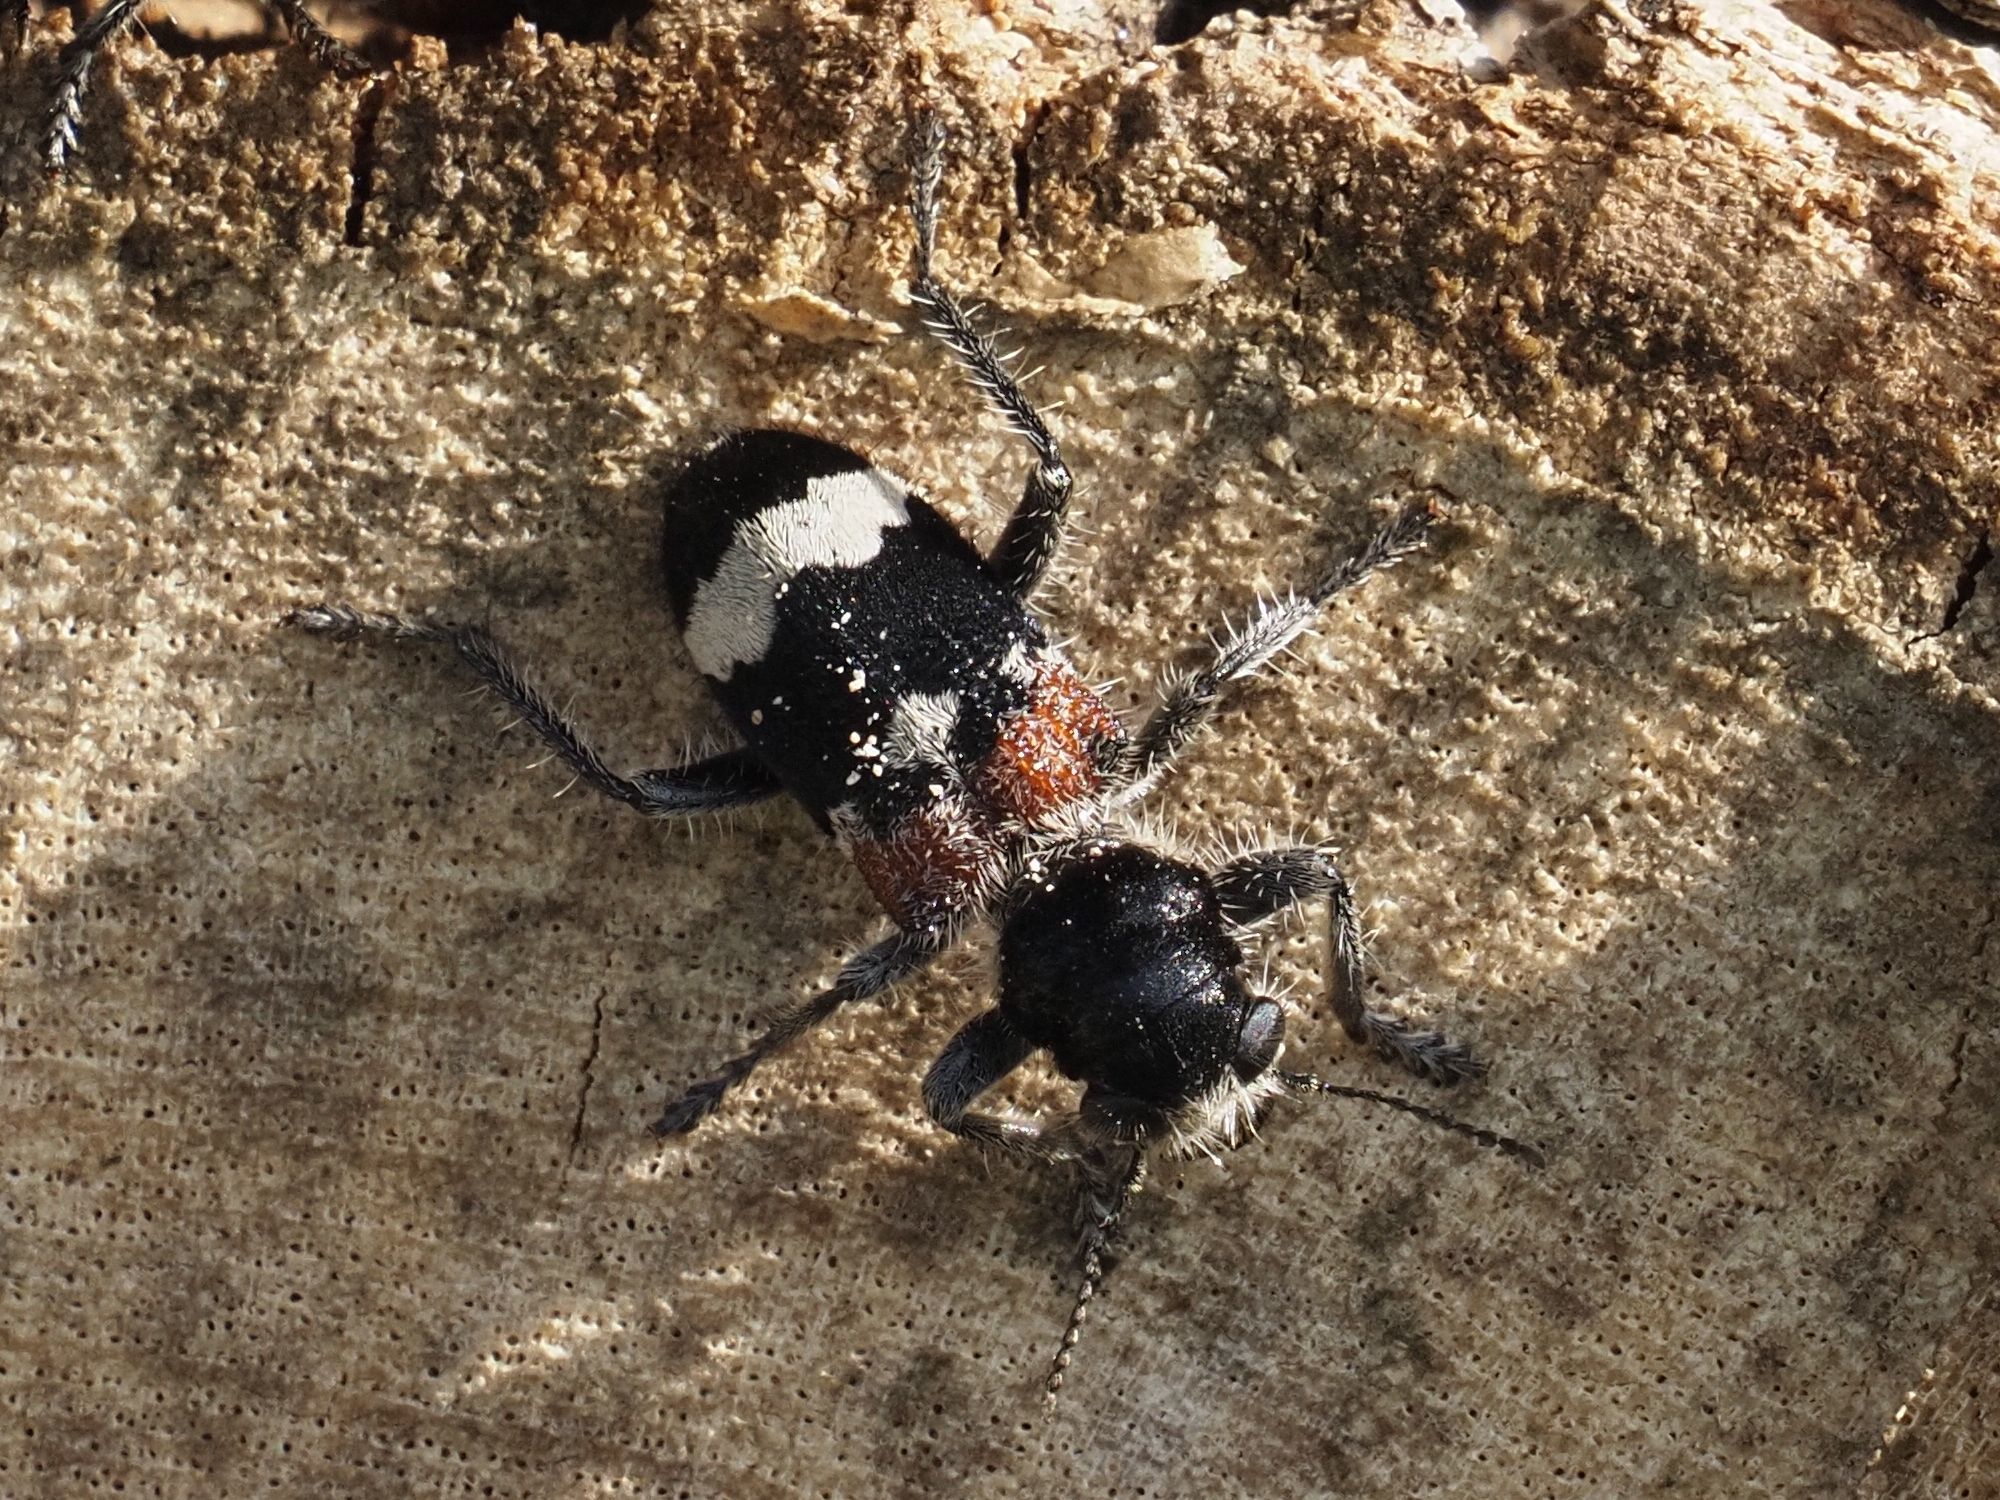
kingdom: Animalia
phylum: Arthropoda
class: Insecta
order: Coleoptera
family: Cleridae
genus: Clerus
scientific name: Clerus mutillarius
